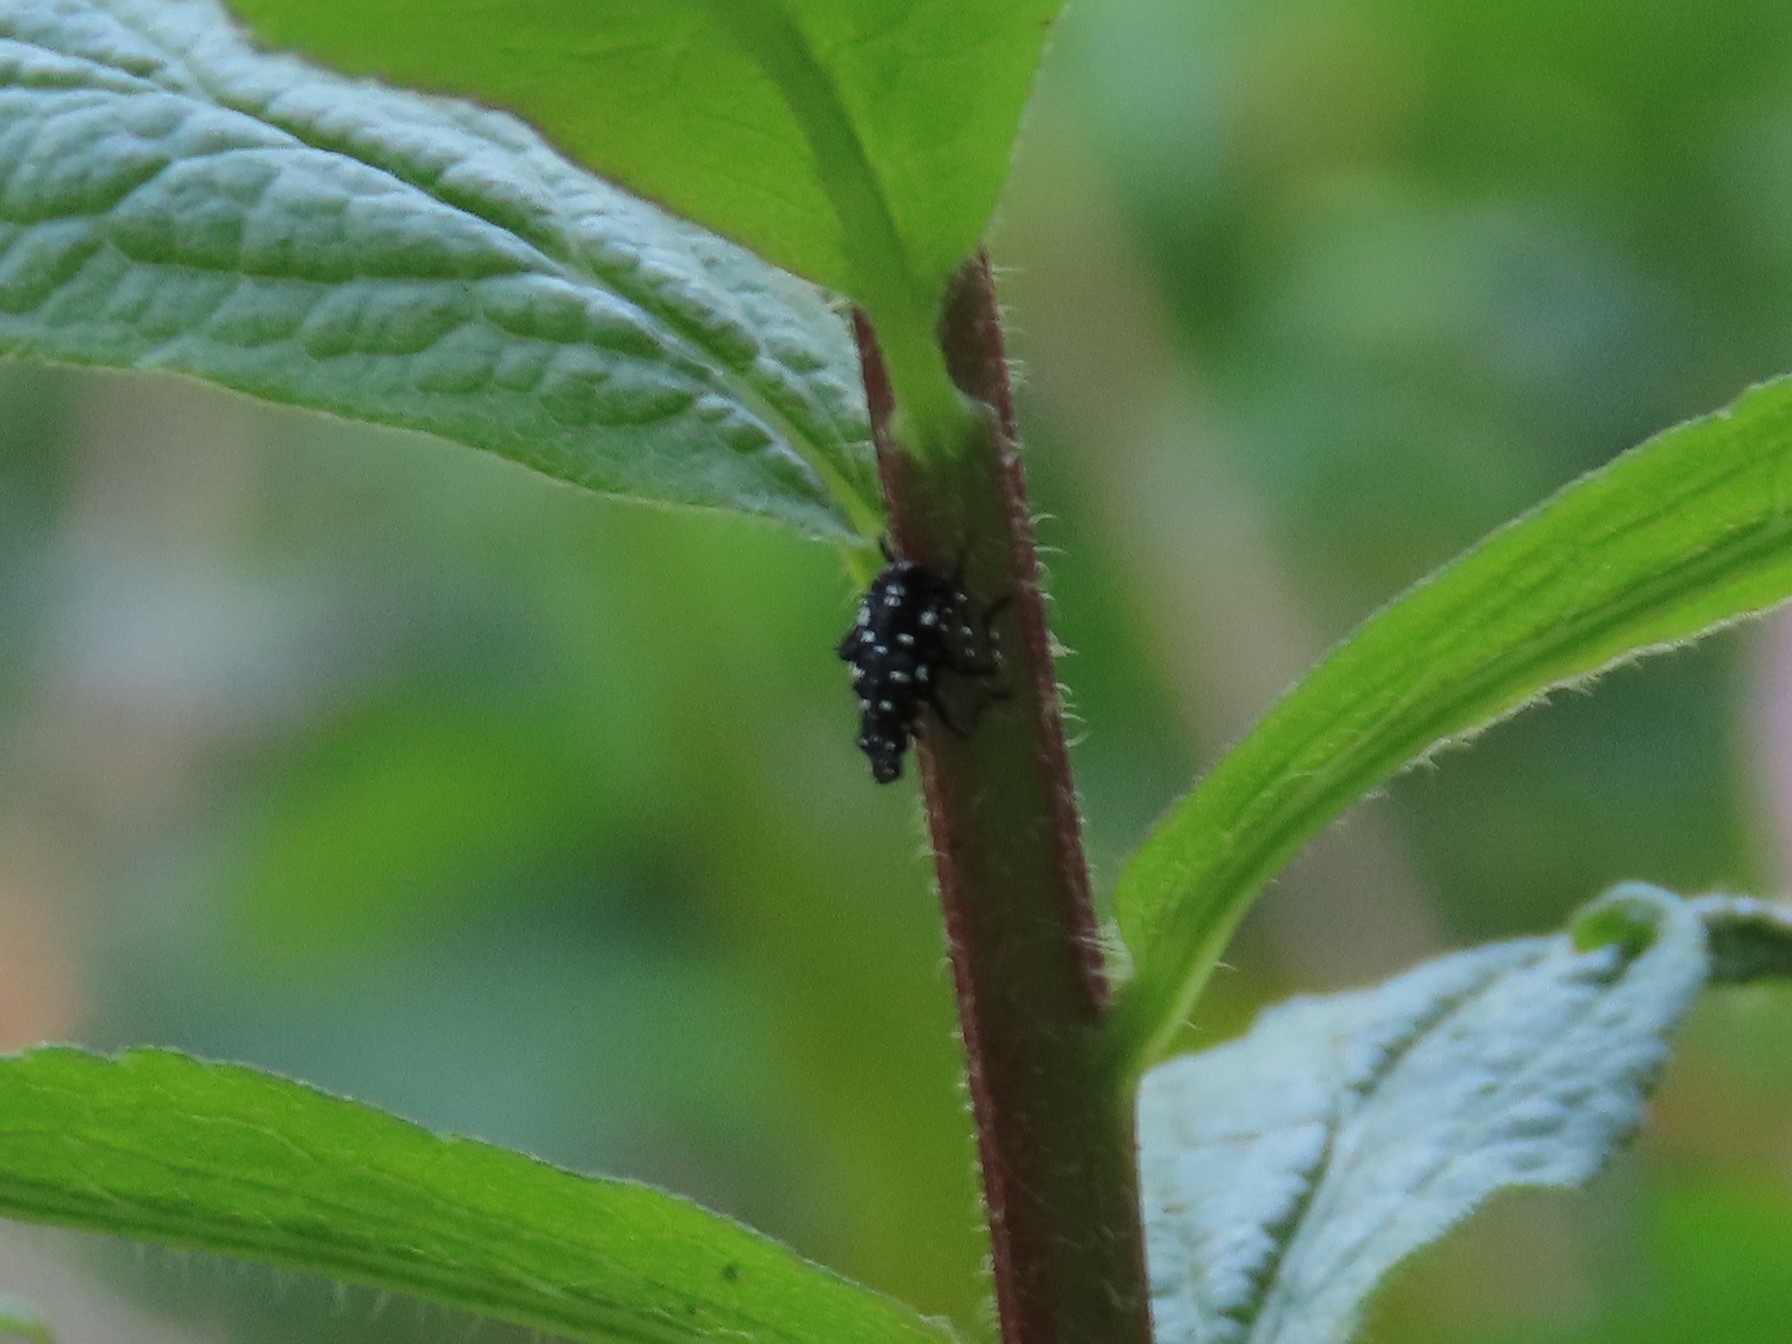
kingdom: Animalia
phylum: Arthropoda
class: Insecta
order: Hemiptera
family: Fulgoridae
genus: Lycorma
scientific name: Lycorma delicatula
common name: Spotted lanternfly
